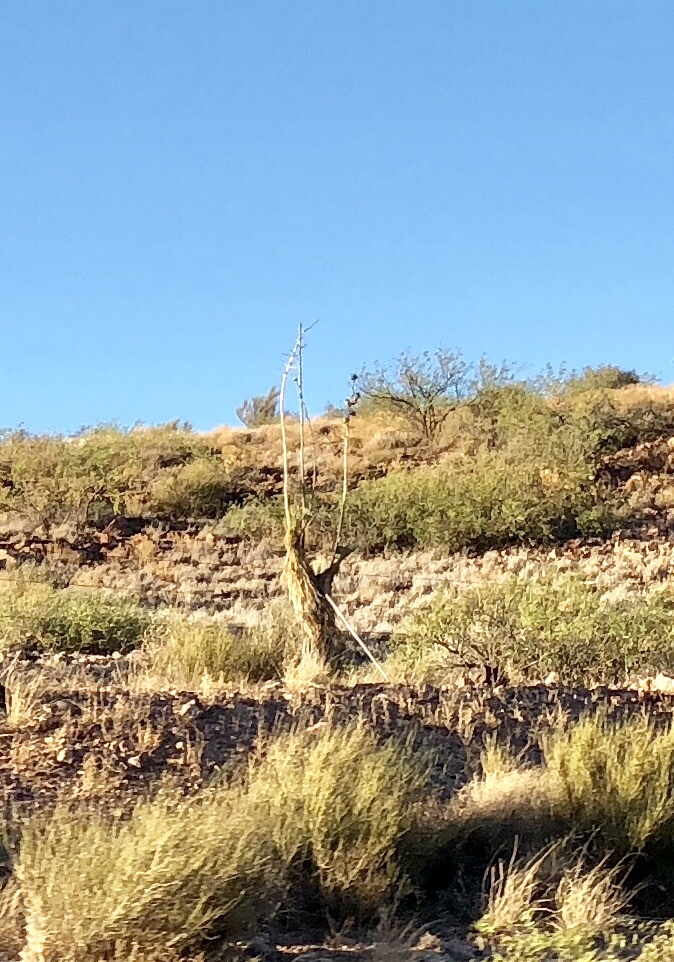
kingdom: Plantae
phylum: Tracheophyta
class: Liliopsida
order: Asparagales
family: Asparagaceae
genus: Yucca
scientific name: Yucca elata
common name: Palmella
